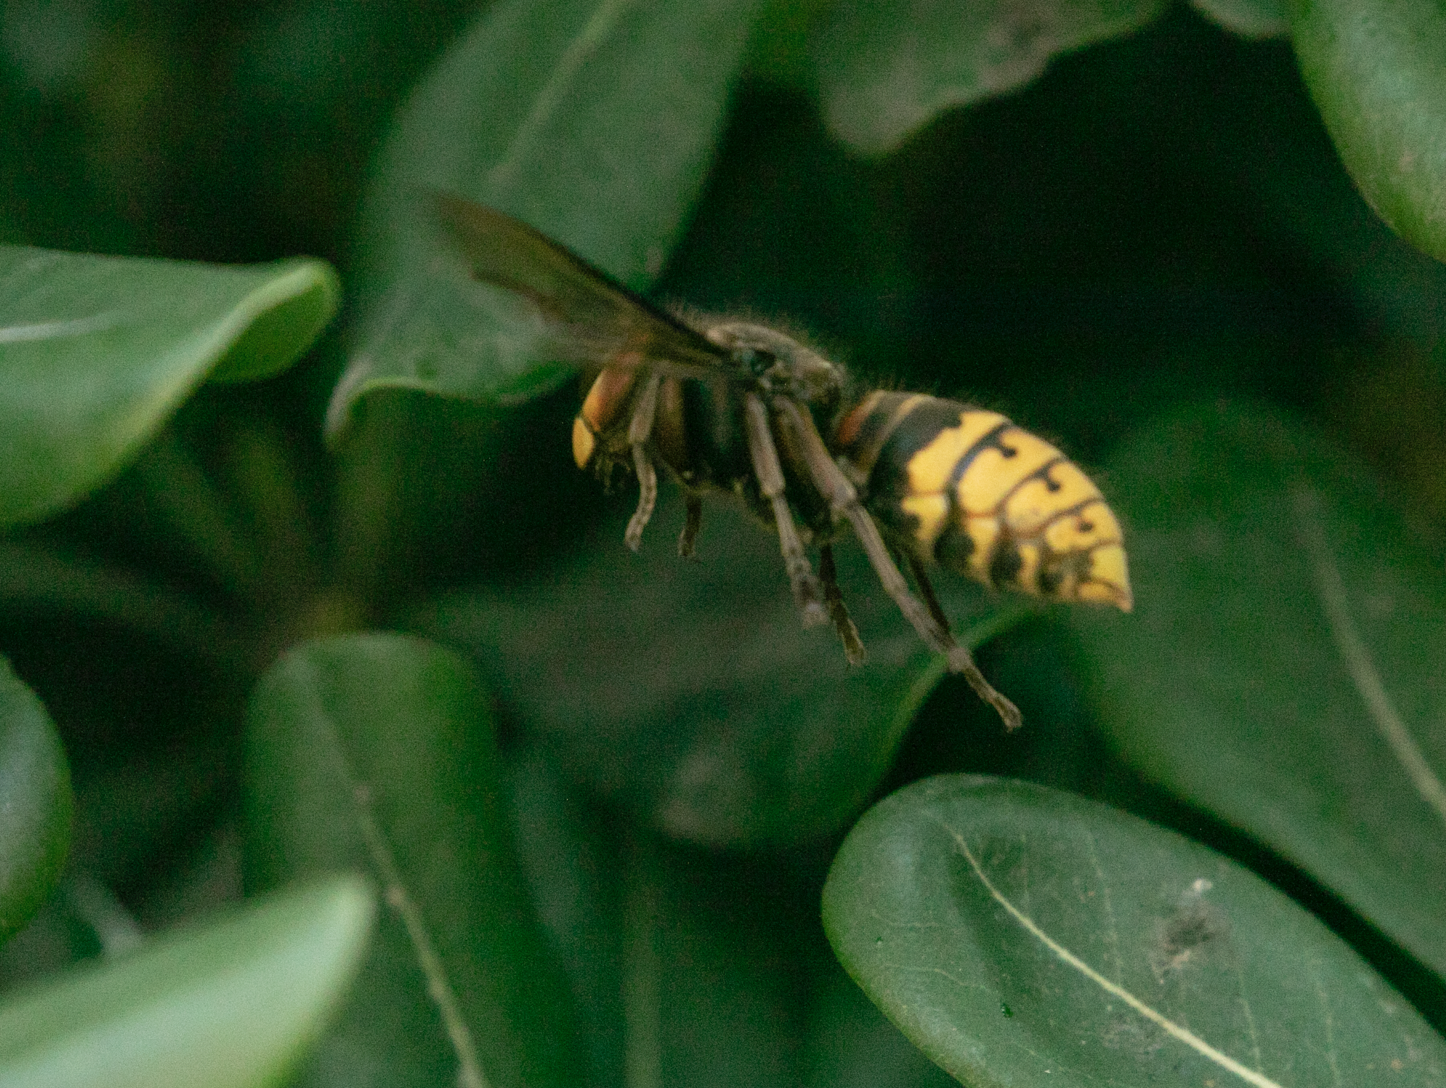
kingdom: Animalia
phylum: Arthropoda
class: Insecta
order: Hymenoptera
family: Vespidae
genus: Vespa
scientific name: Vespa crabro
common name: Hornet
